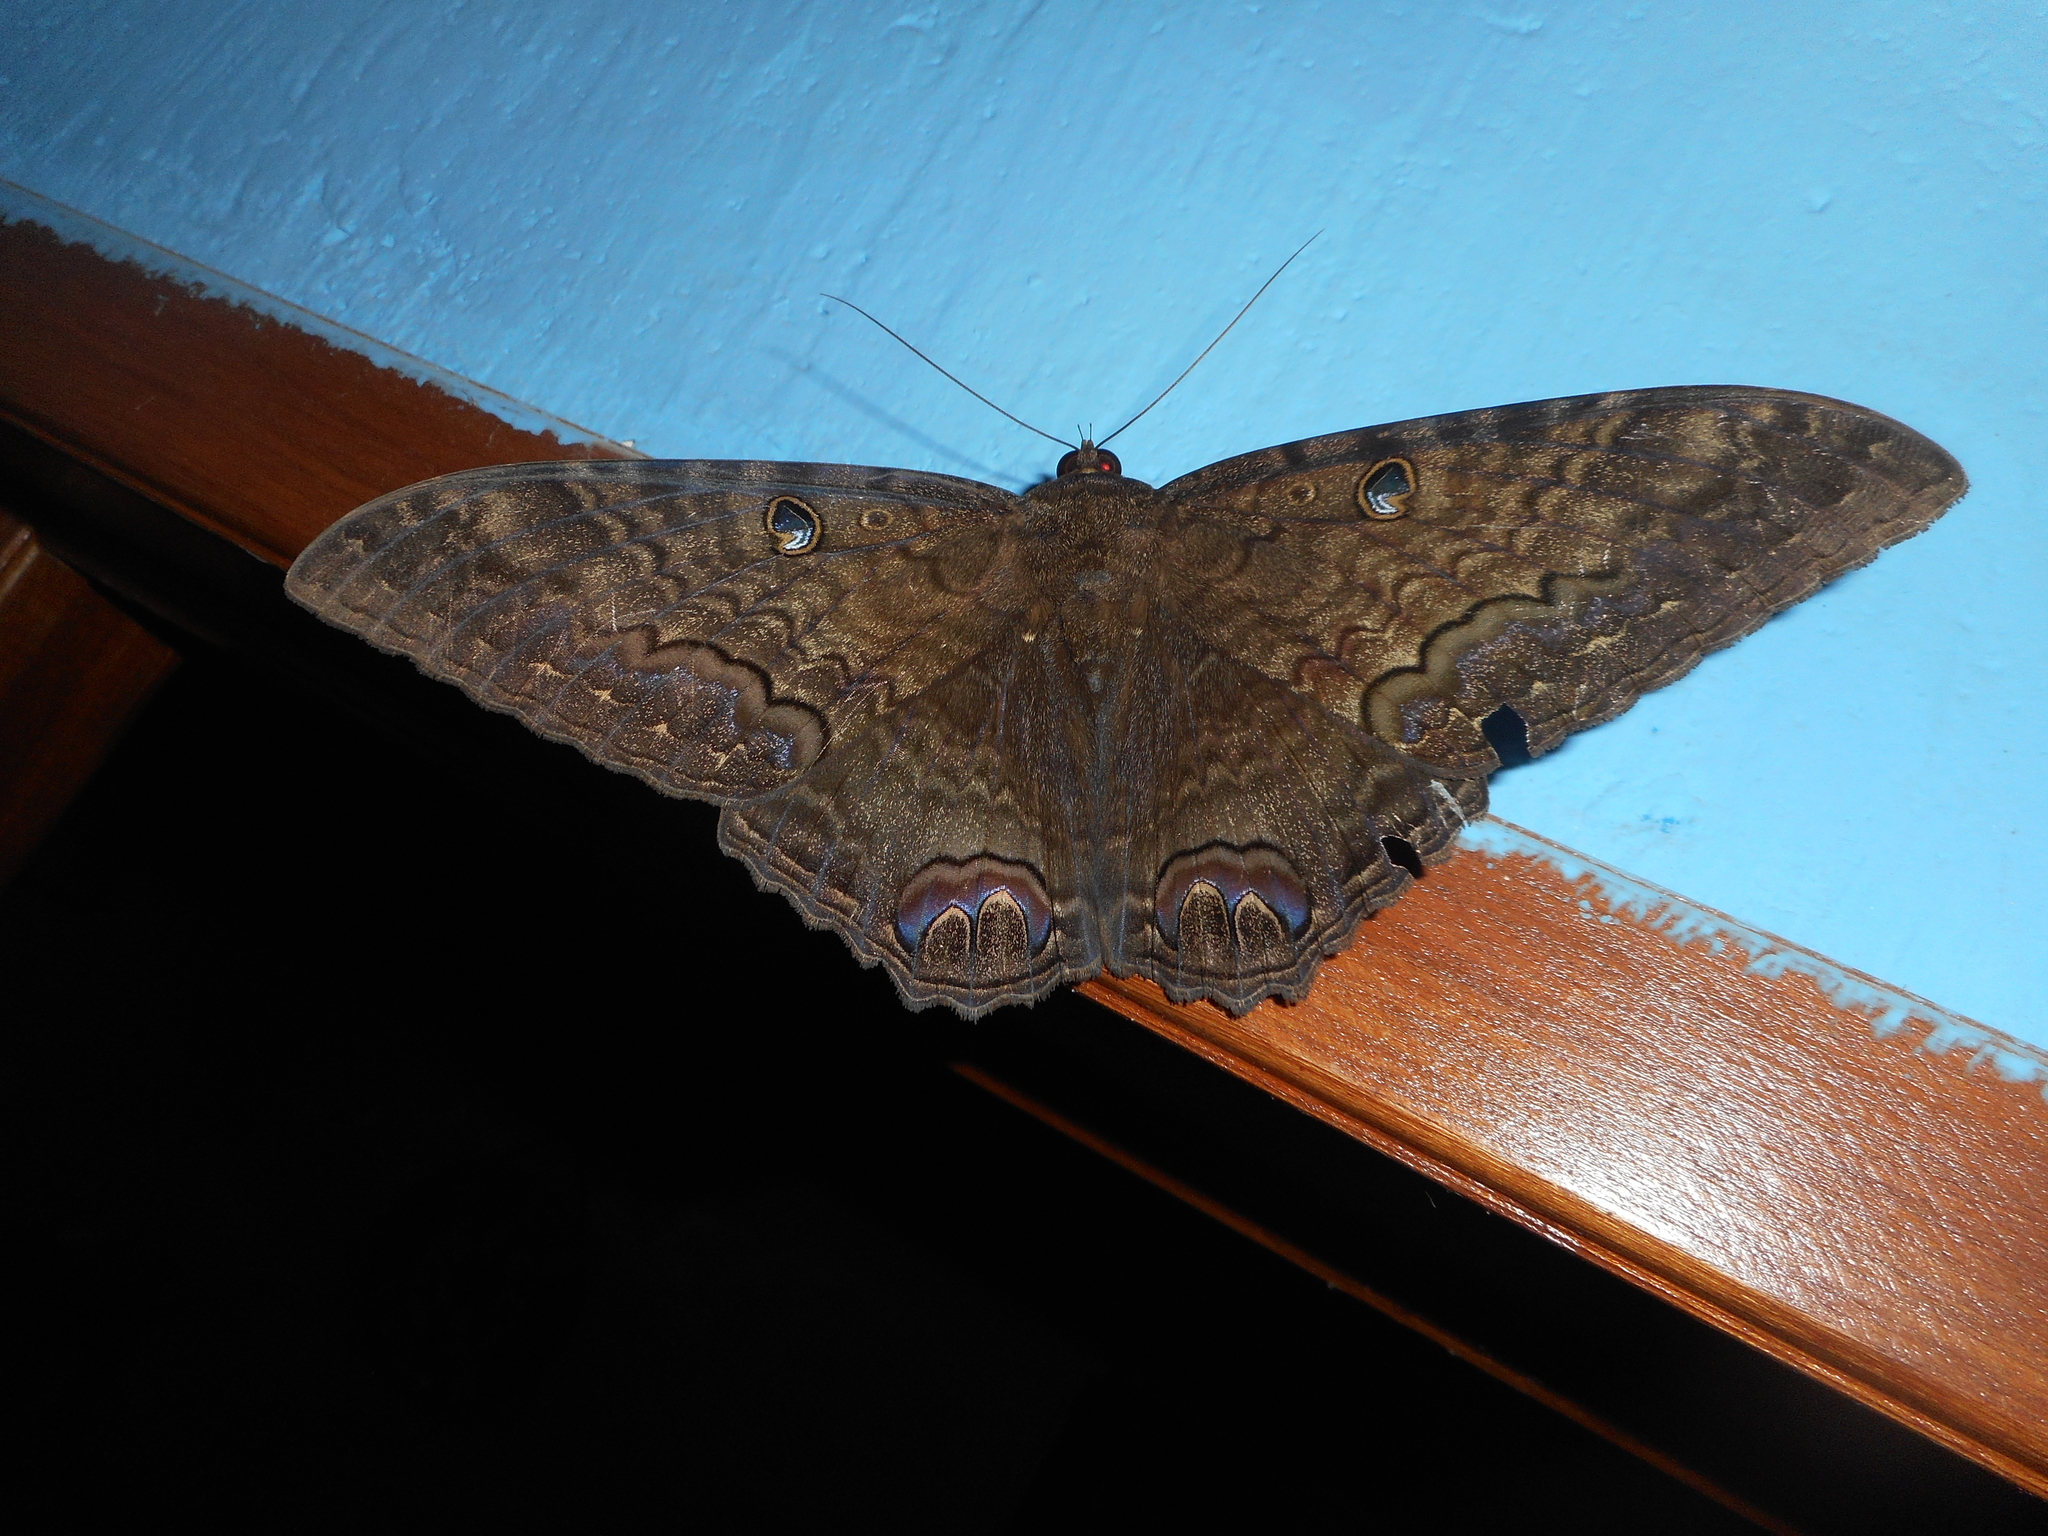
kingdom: Animalia
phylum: Arthropoda
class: Insecta
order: Lepidoptera
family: Erebidae
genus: Ascalapha
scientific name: Ascalapha odorata
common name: Black witch
